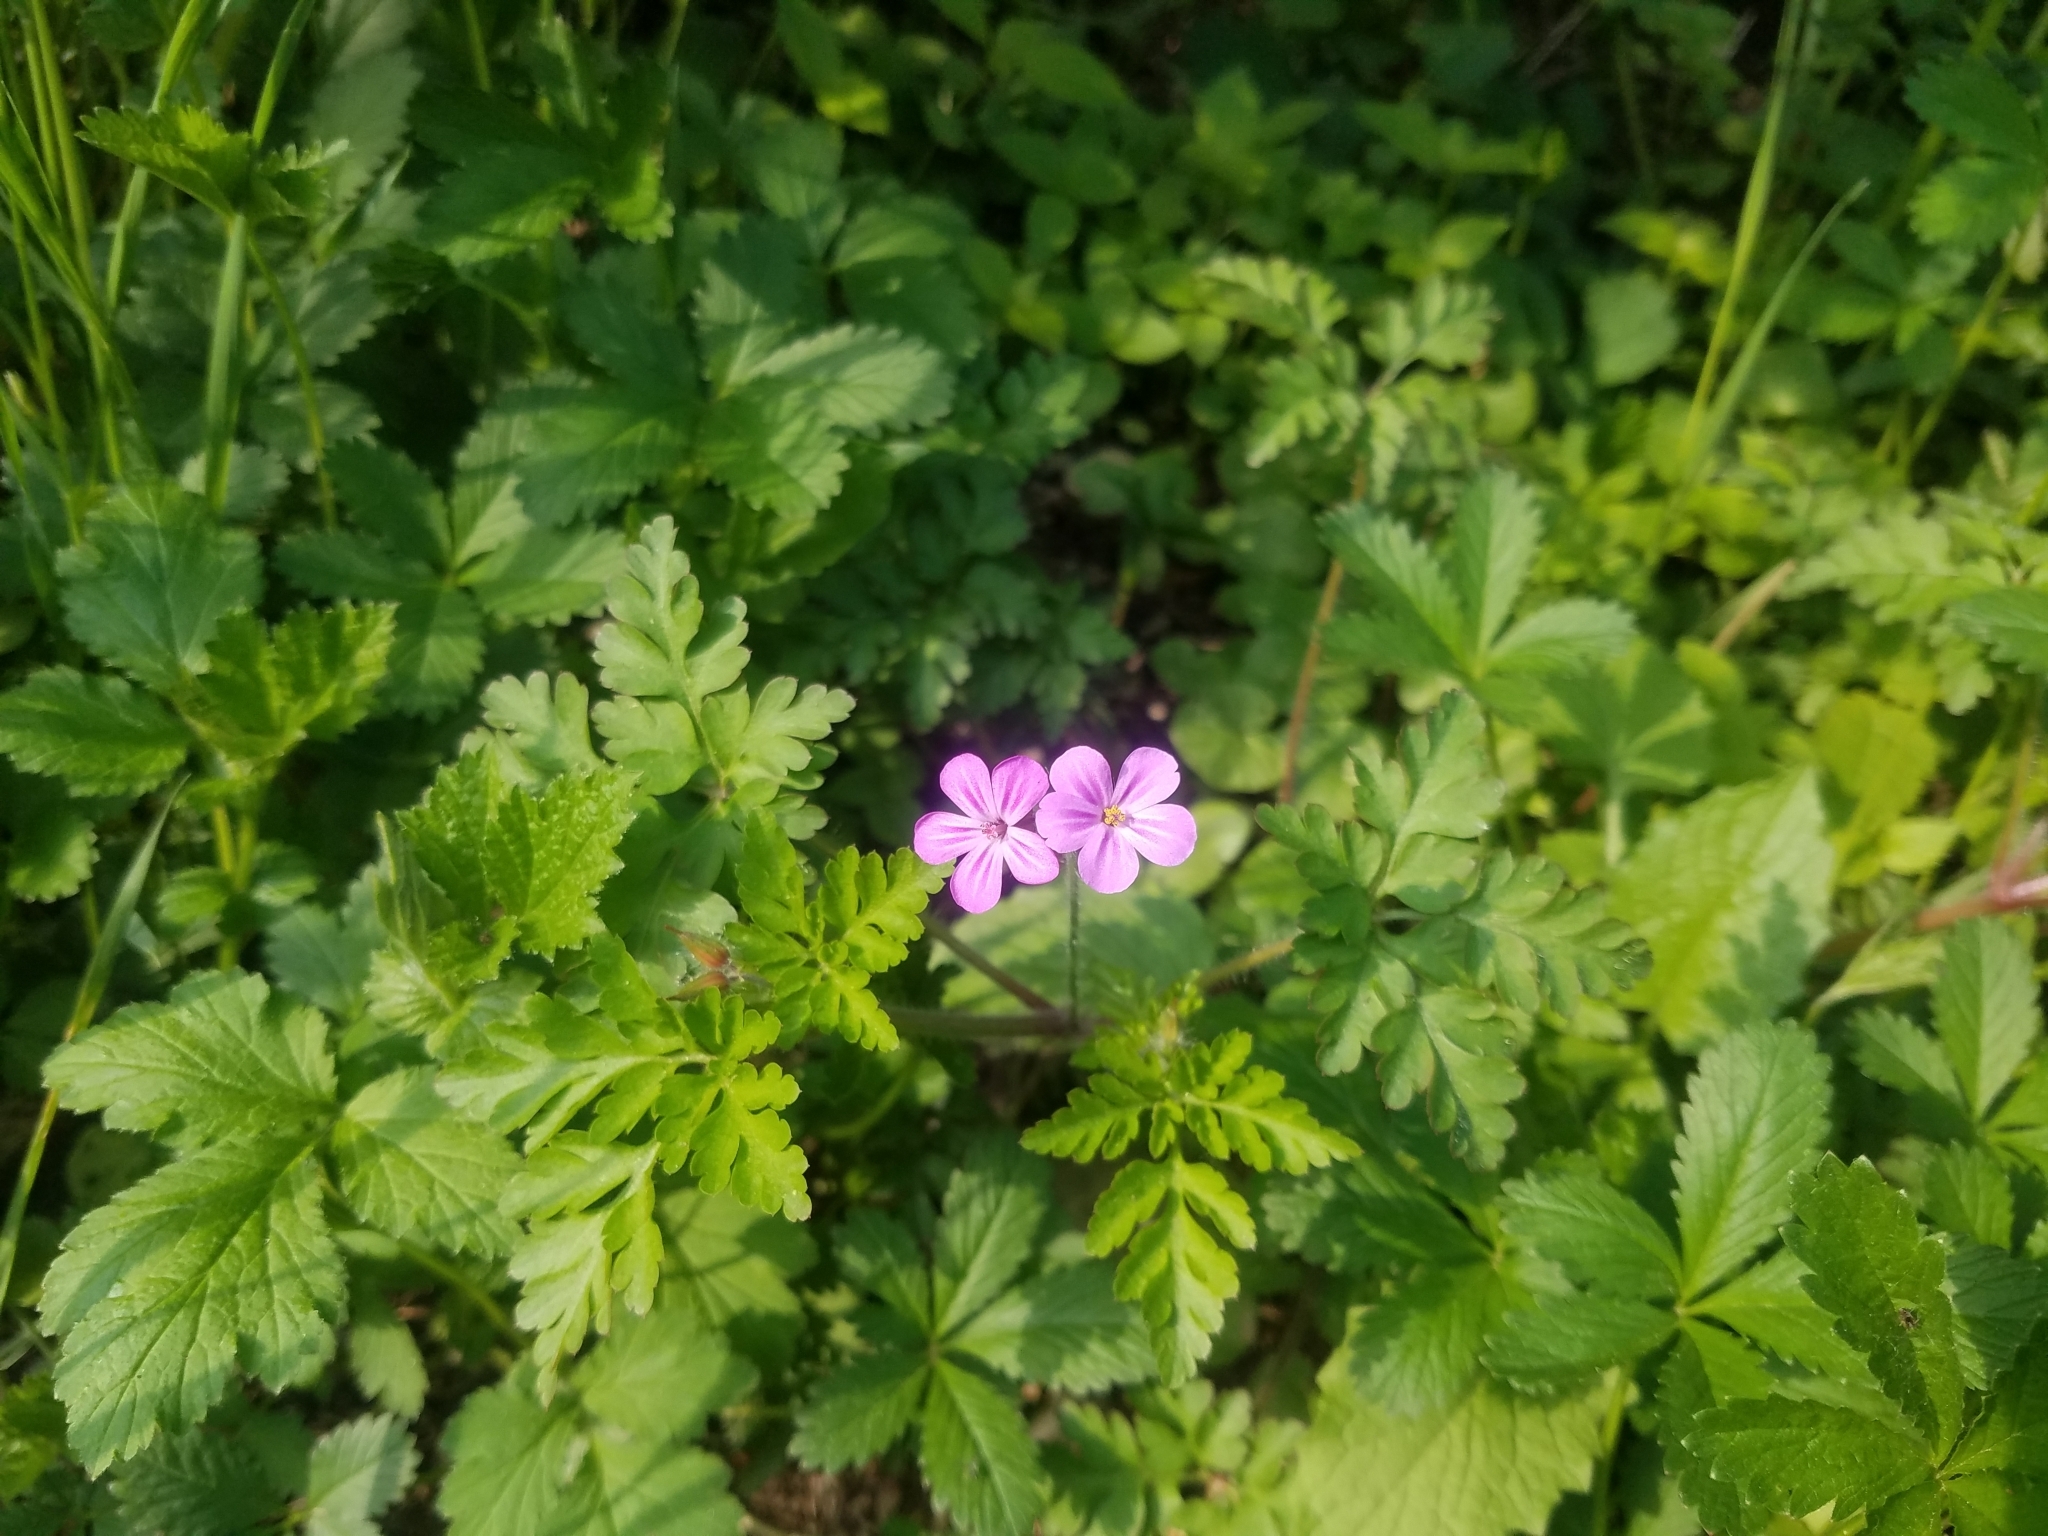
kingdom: Plantae
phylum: Tracheophyta
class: Magnoliopsida
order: Geraniales
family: Geraniaceae
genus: Geranium
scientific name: Geranium robertianum
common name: Herb-robert
